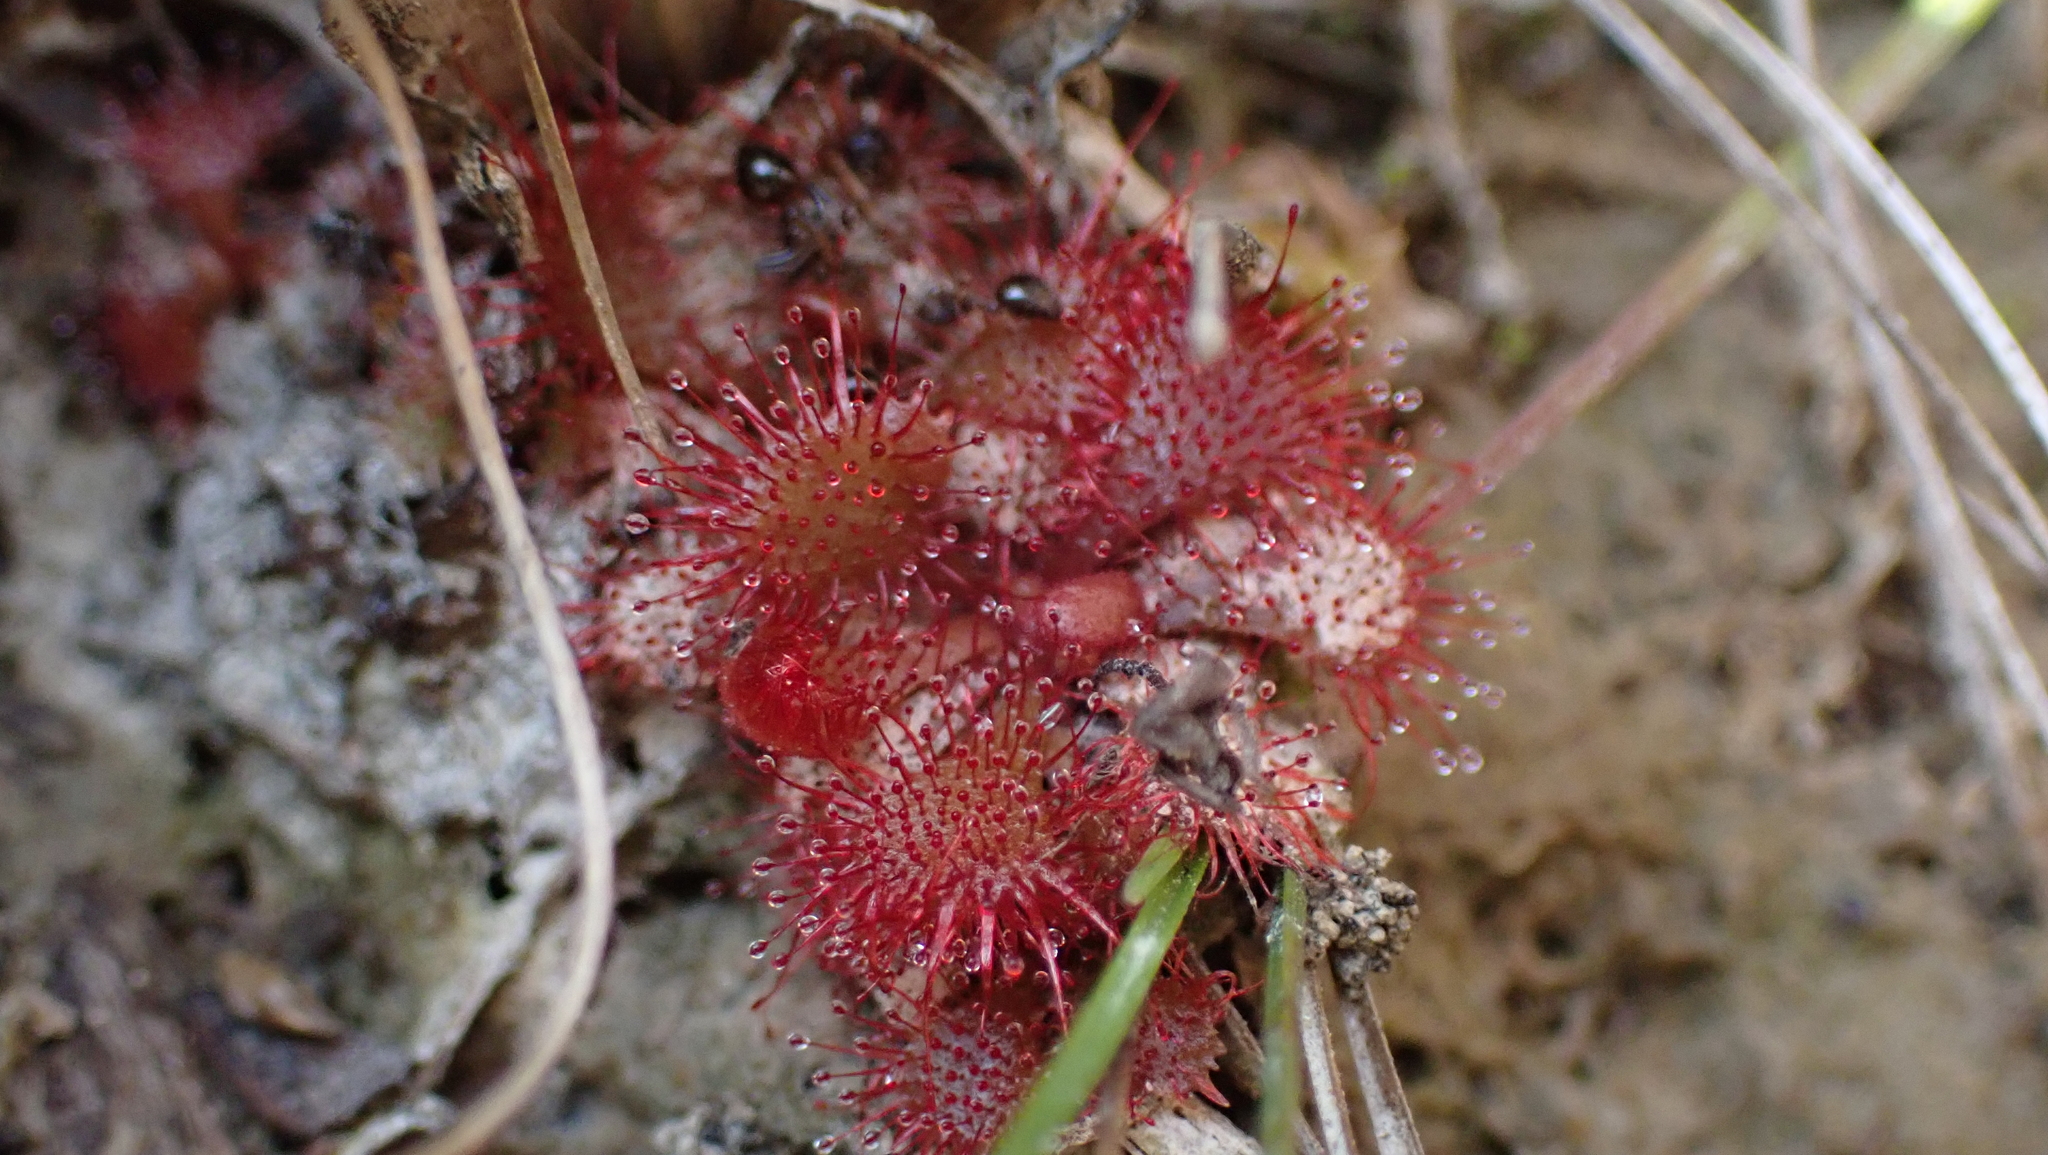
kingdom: Plantae
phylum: Tracheophyta
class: Magnoliopsida
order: Caryophyllales
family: Droseraceae
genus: Drosera
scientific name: Drosera brevifolia
